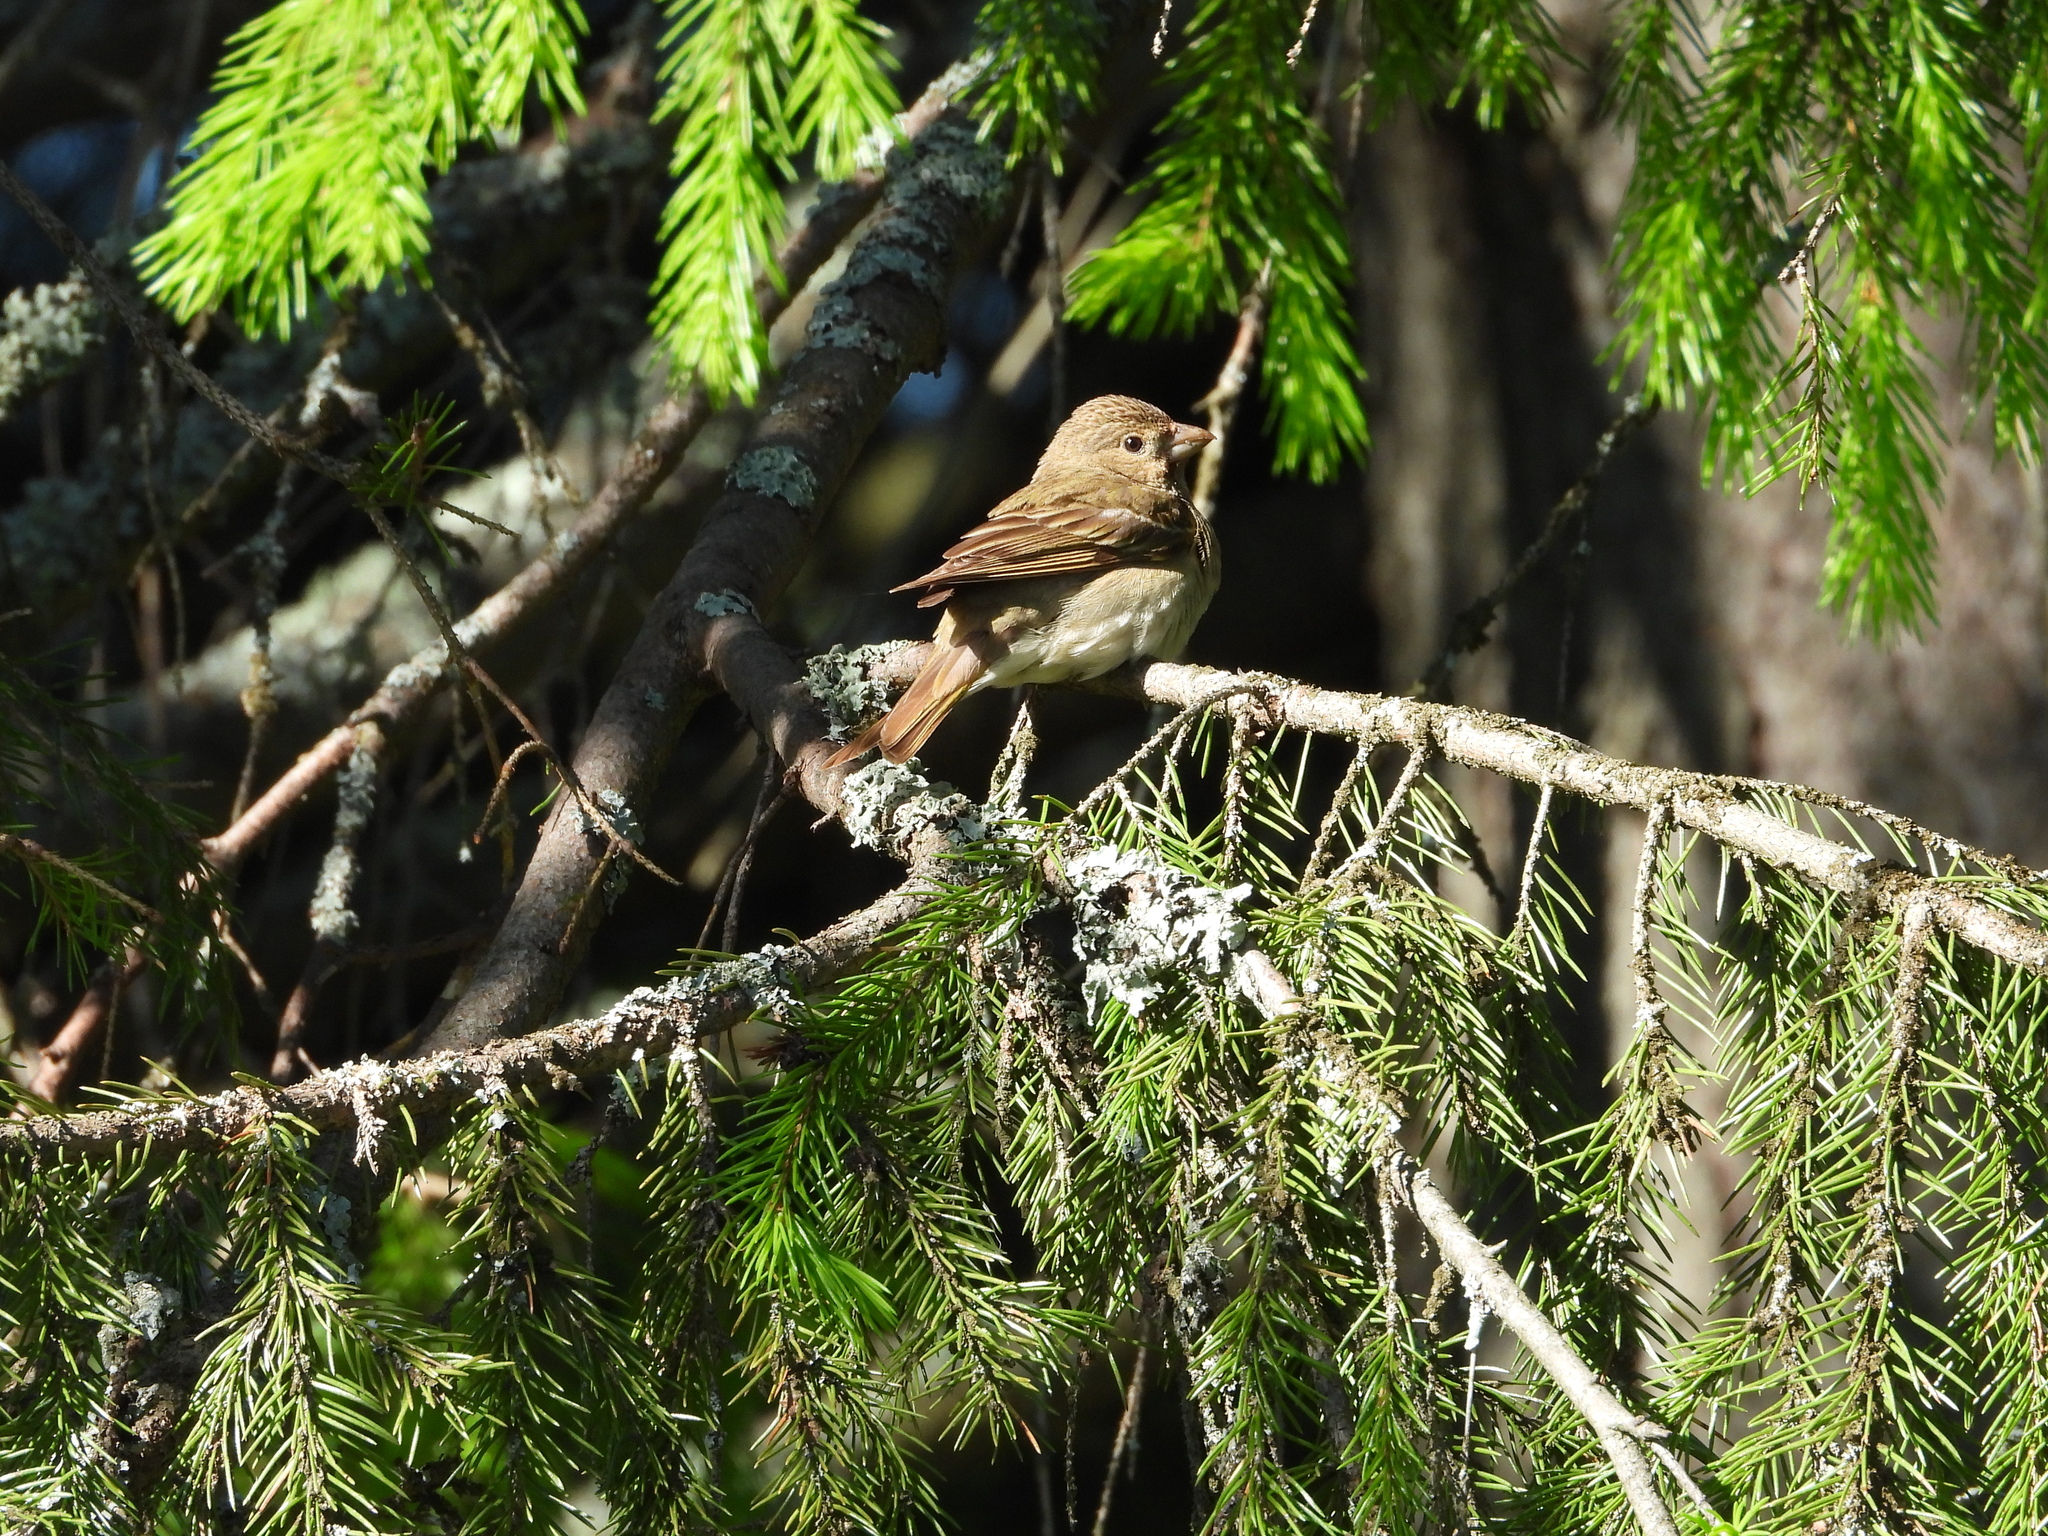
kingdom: Animalia
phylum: Chordata
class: Aves
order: Passeriformes
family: Fringillidae
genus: Carpodacus
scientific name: Carpodacus erythrinus
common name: Common rosefinch
